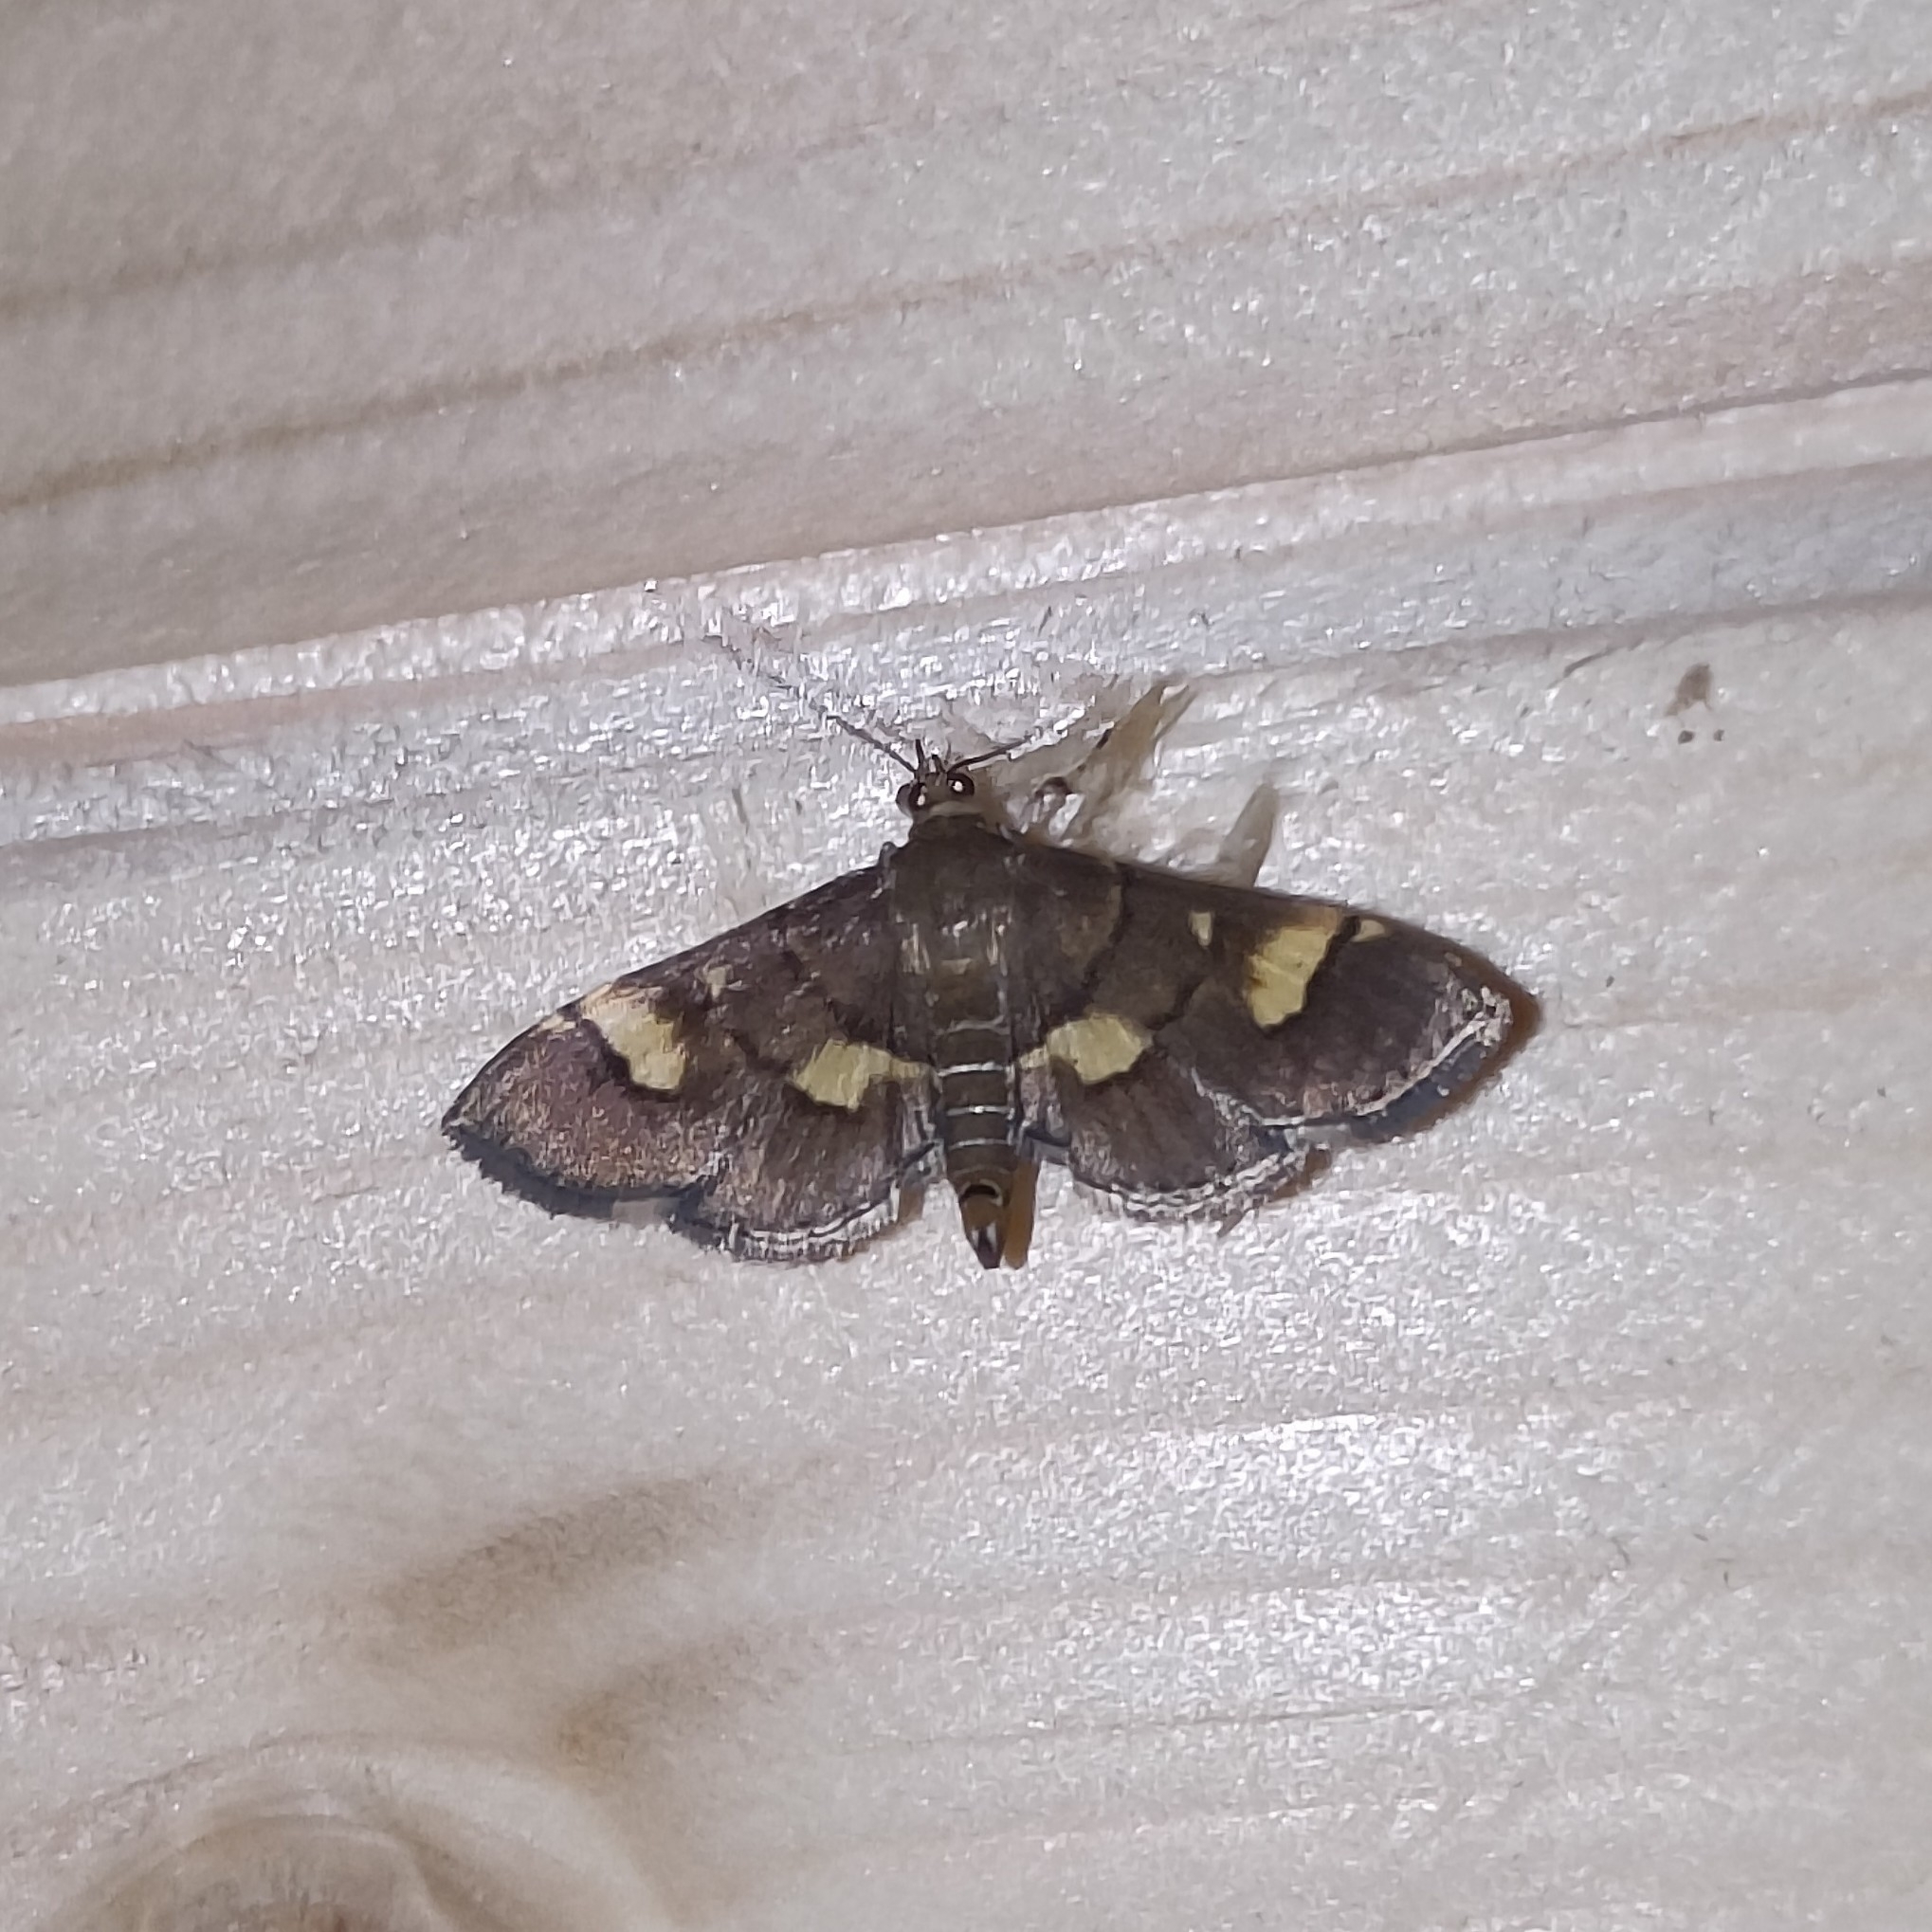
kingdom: Animalia
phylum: Arthropoda
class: Insecta
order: Lepidoptera
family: Crambidae
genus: Syngamia
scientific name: Syngamia falsidicalis
